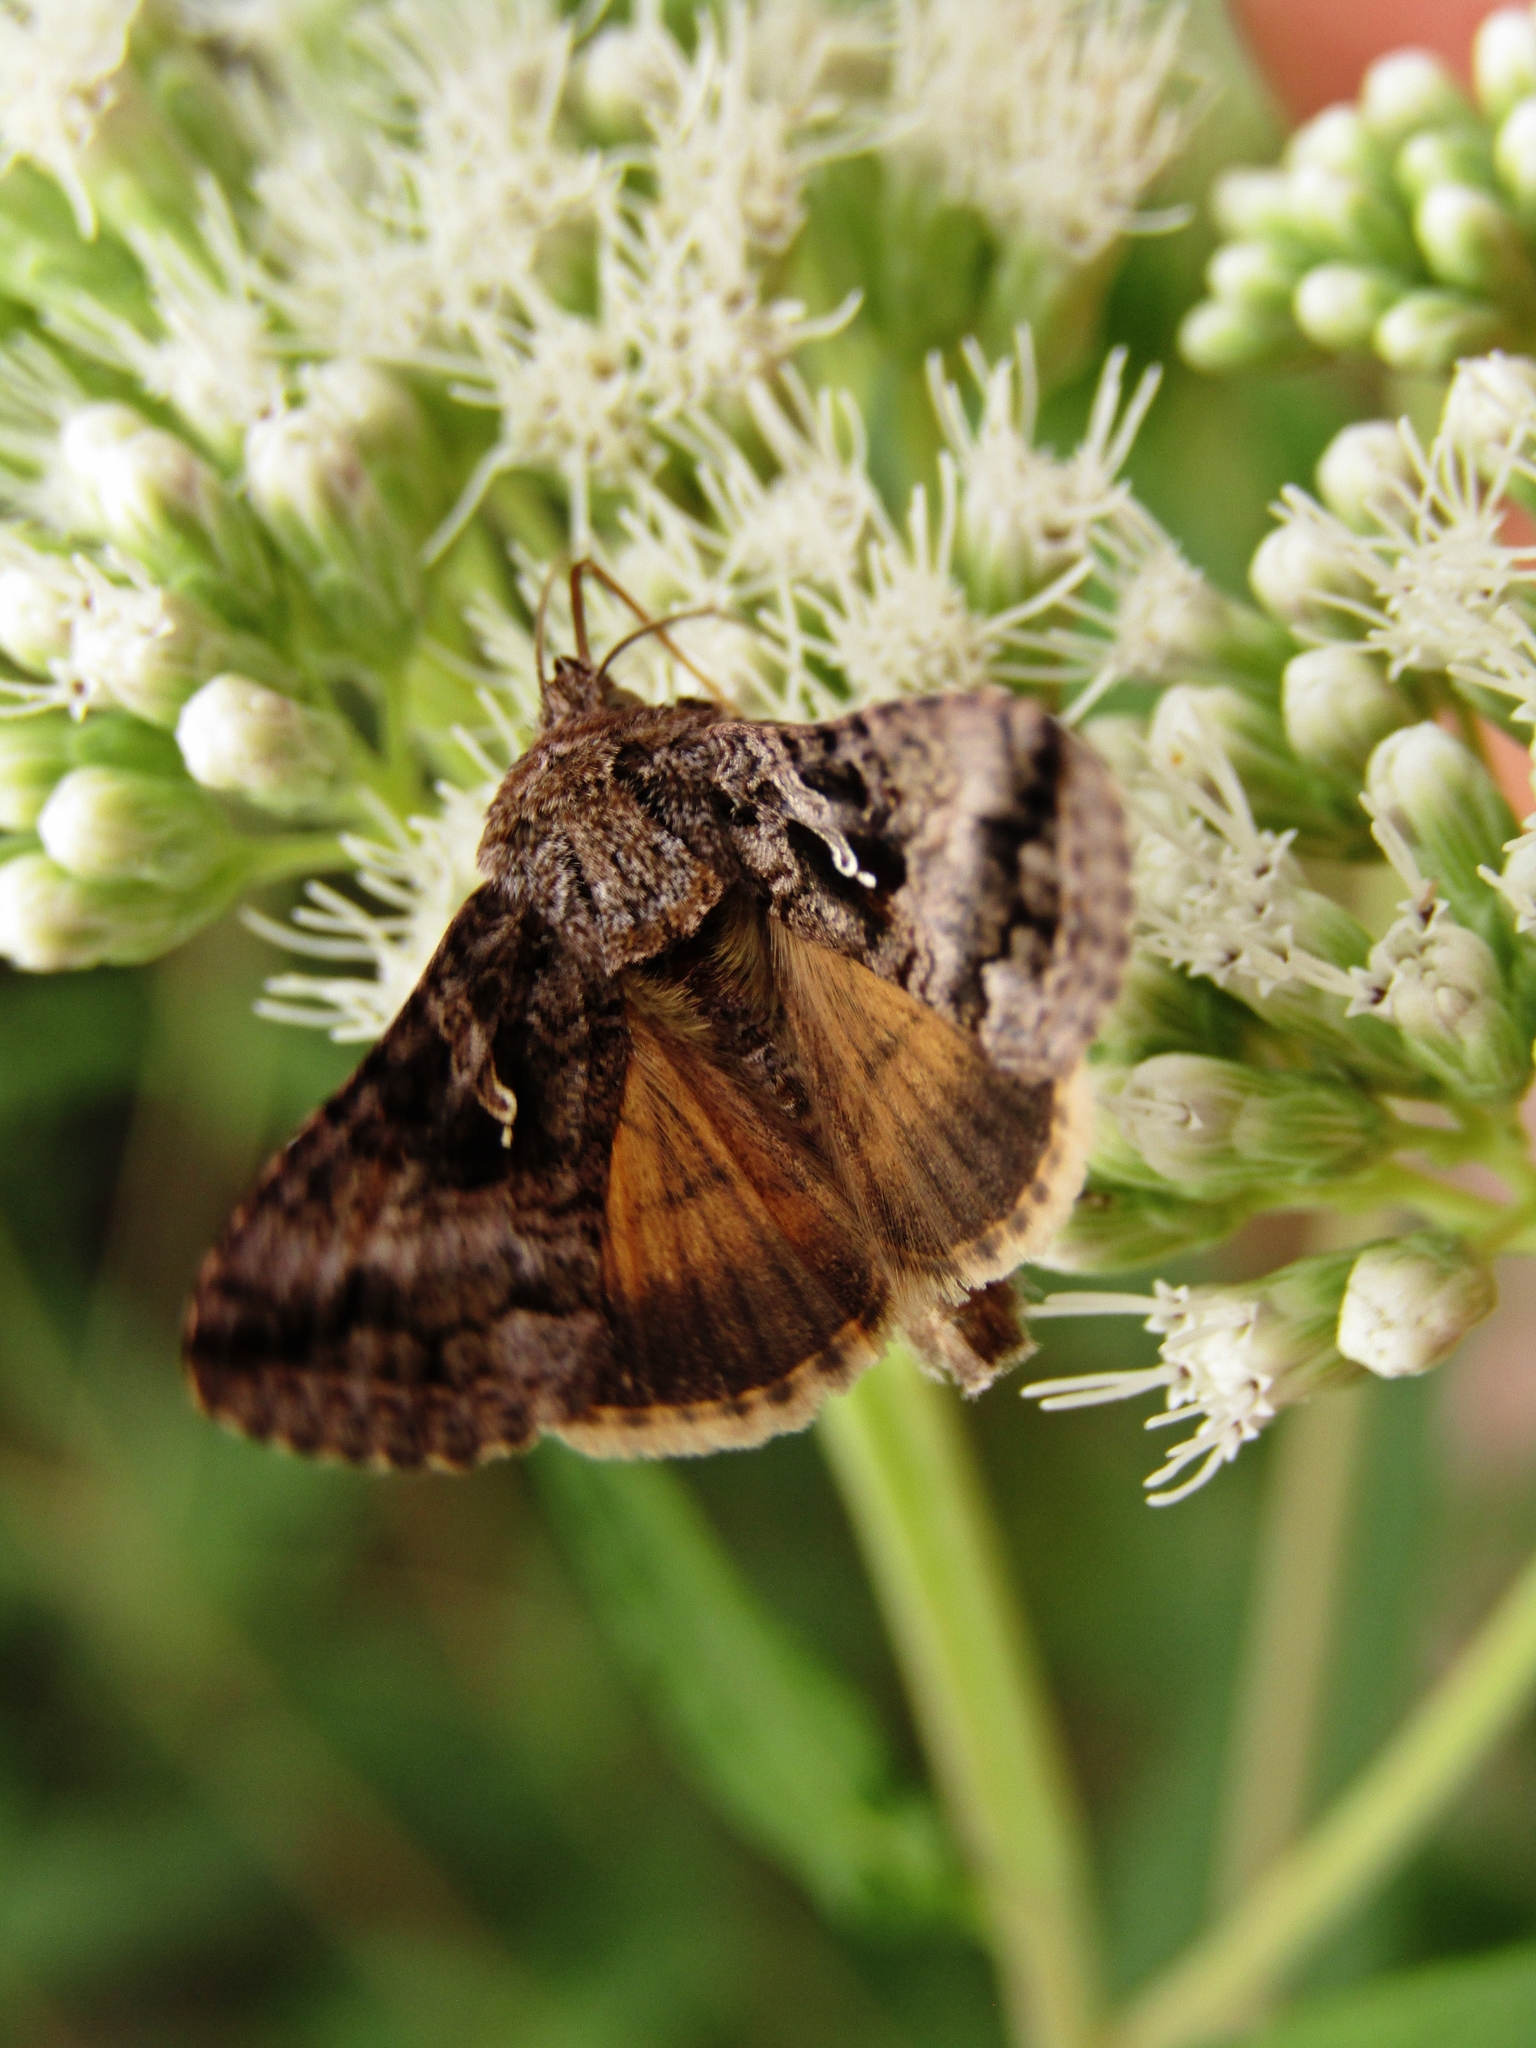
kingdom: Animalia
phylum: Arthropoda
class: Insecta
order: Lepidoptera
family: Noctuidae
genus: Rachiplusia
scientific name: Rachiplusia nu
